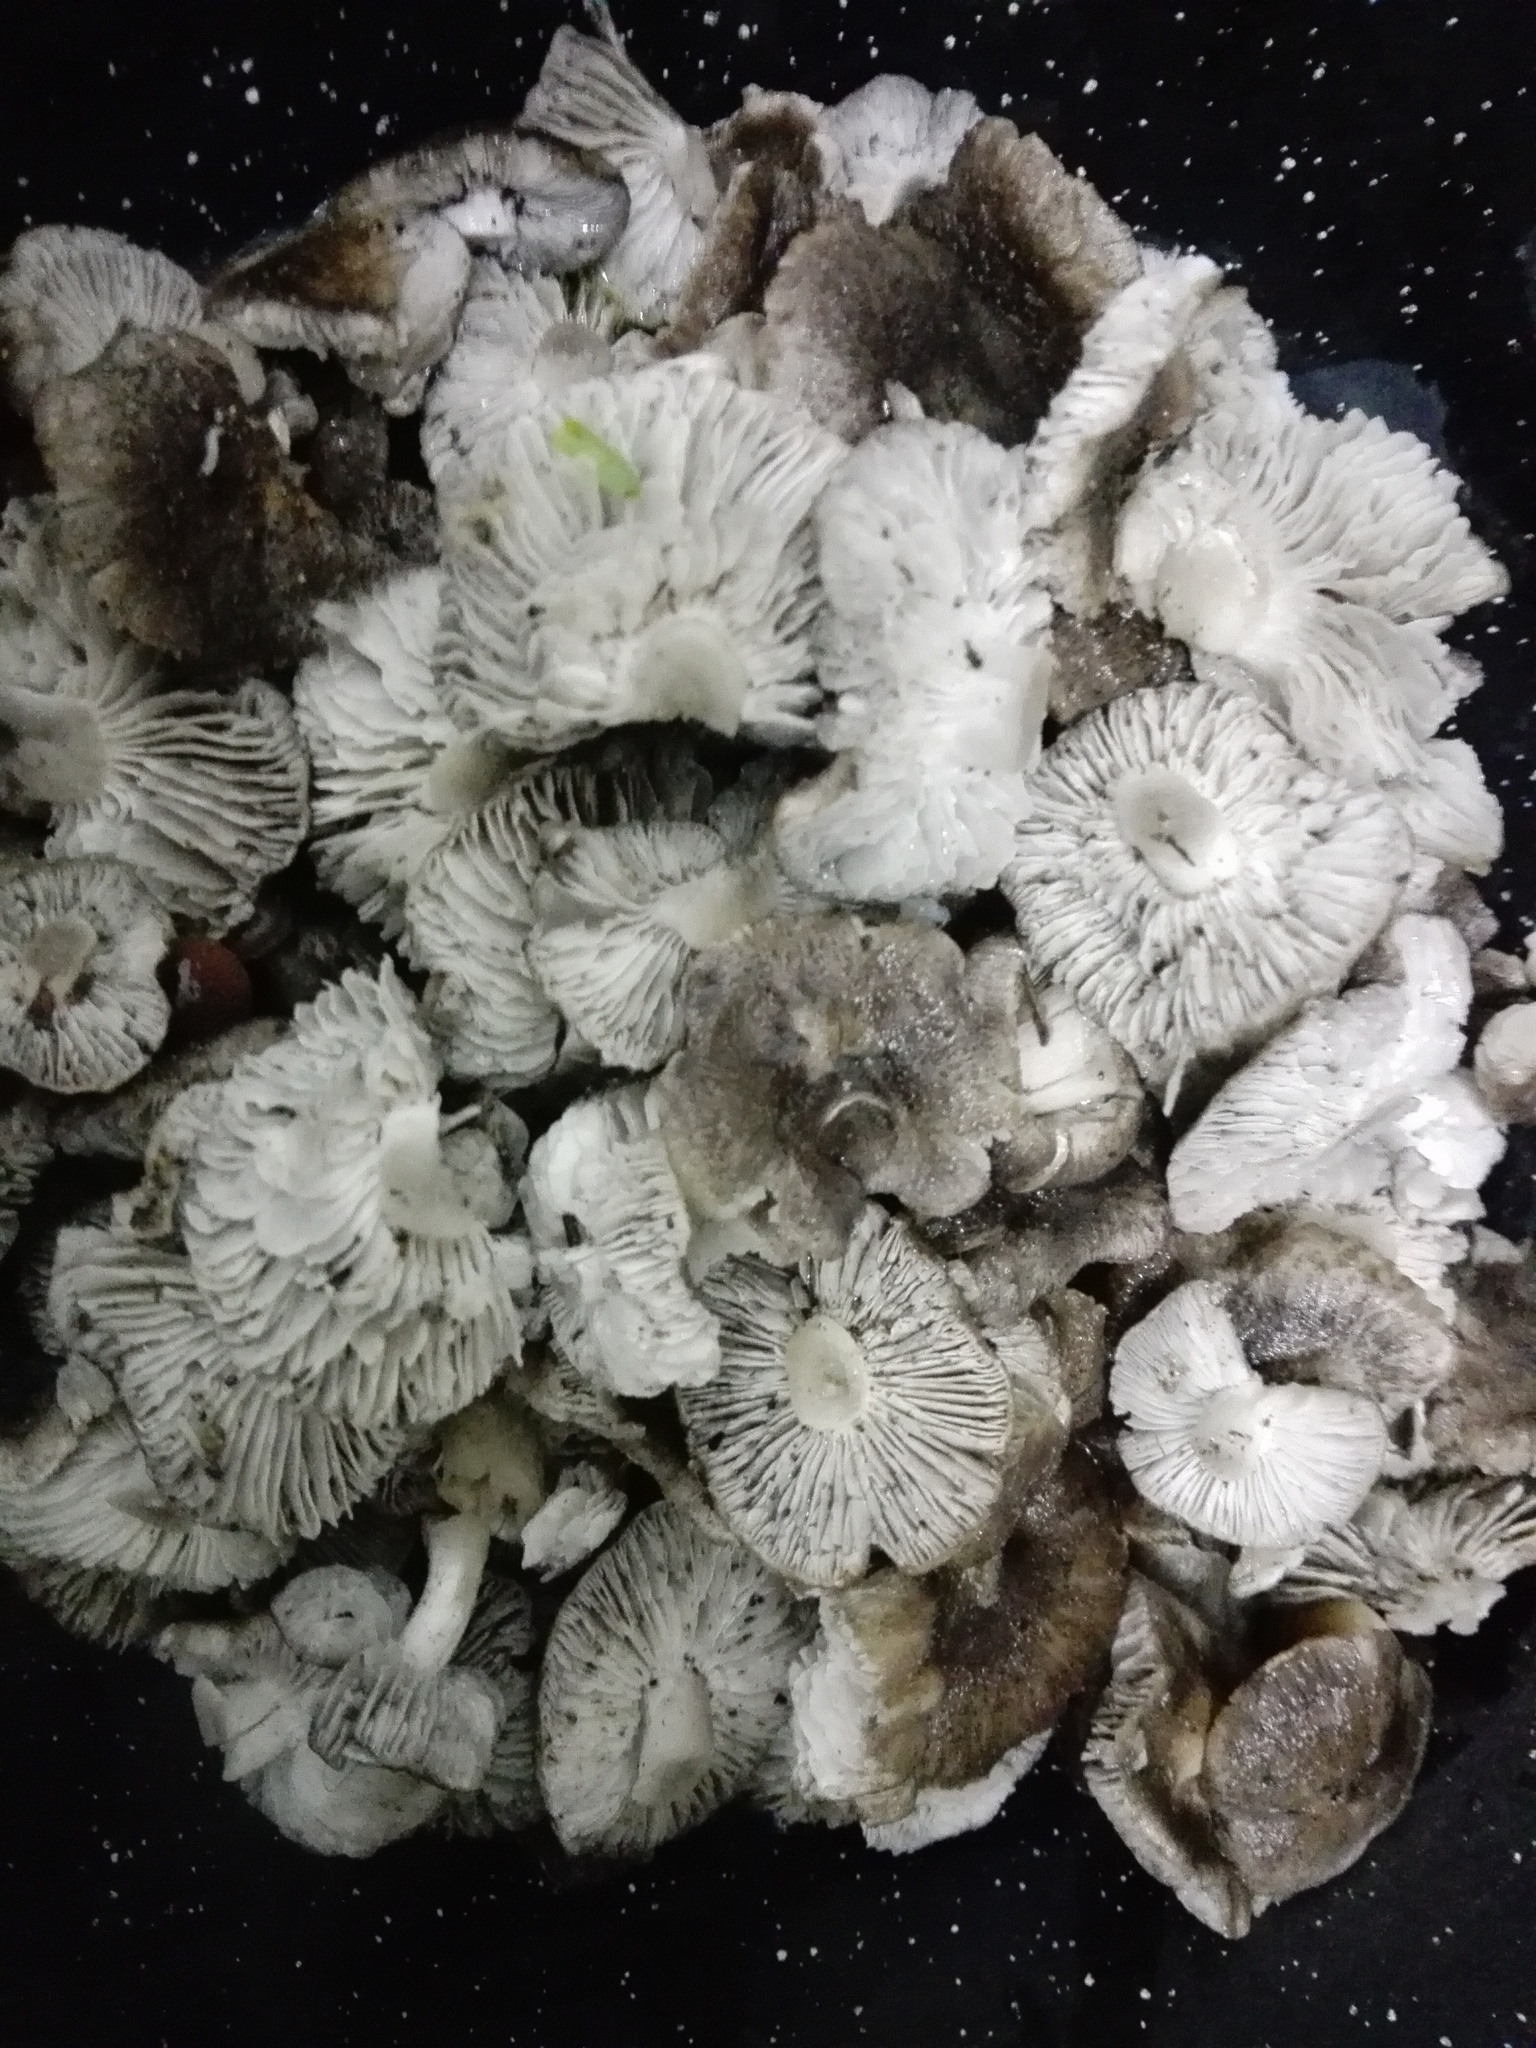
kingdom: Fungi
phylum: Basidiomycota
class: Agaricomycetes
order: Agaricales
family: Tricholomataceae
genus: Tricholoma
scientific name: Tricholoma terreum
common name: Grey knight
